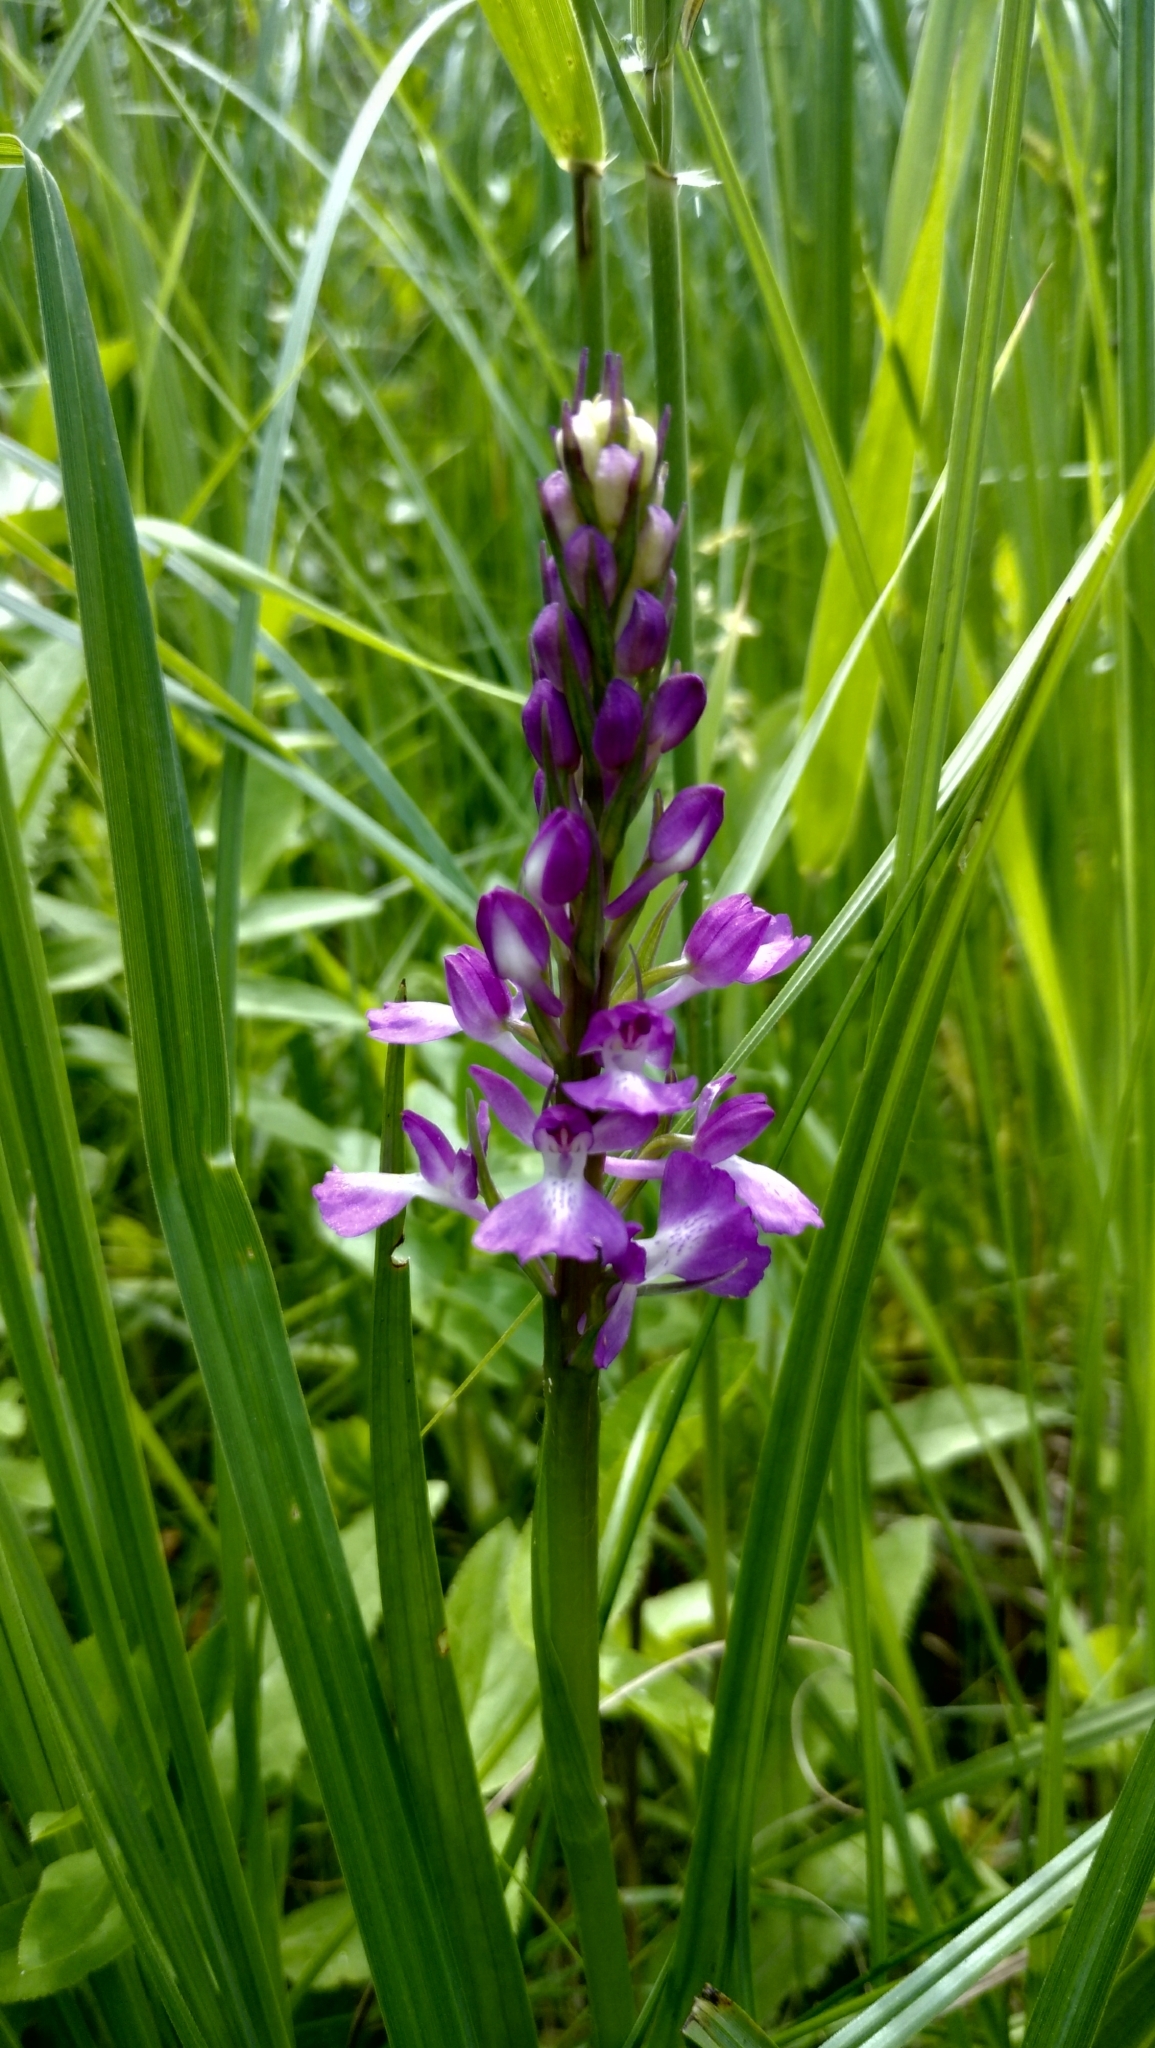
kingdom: Plantae
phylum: Tracheophyta
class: Liliopsida
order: Asparagales
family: Orchidaceae
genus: Anacamptis
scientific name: Anacamptis palustris
